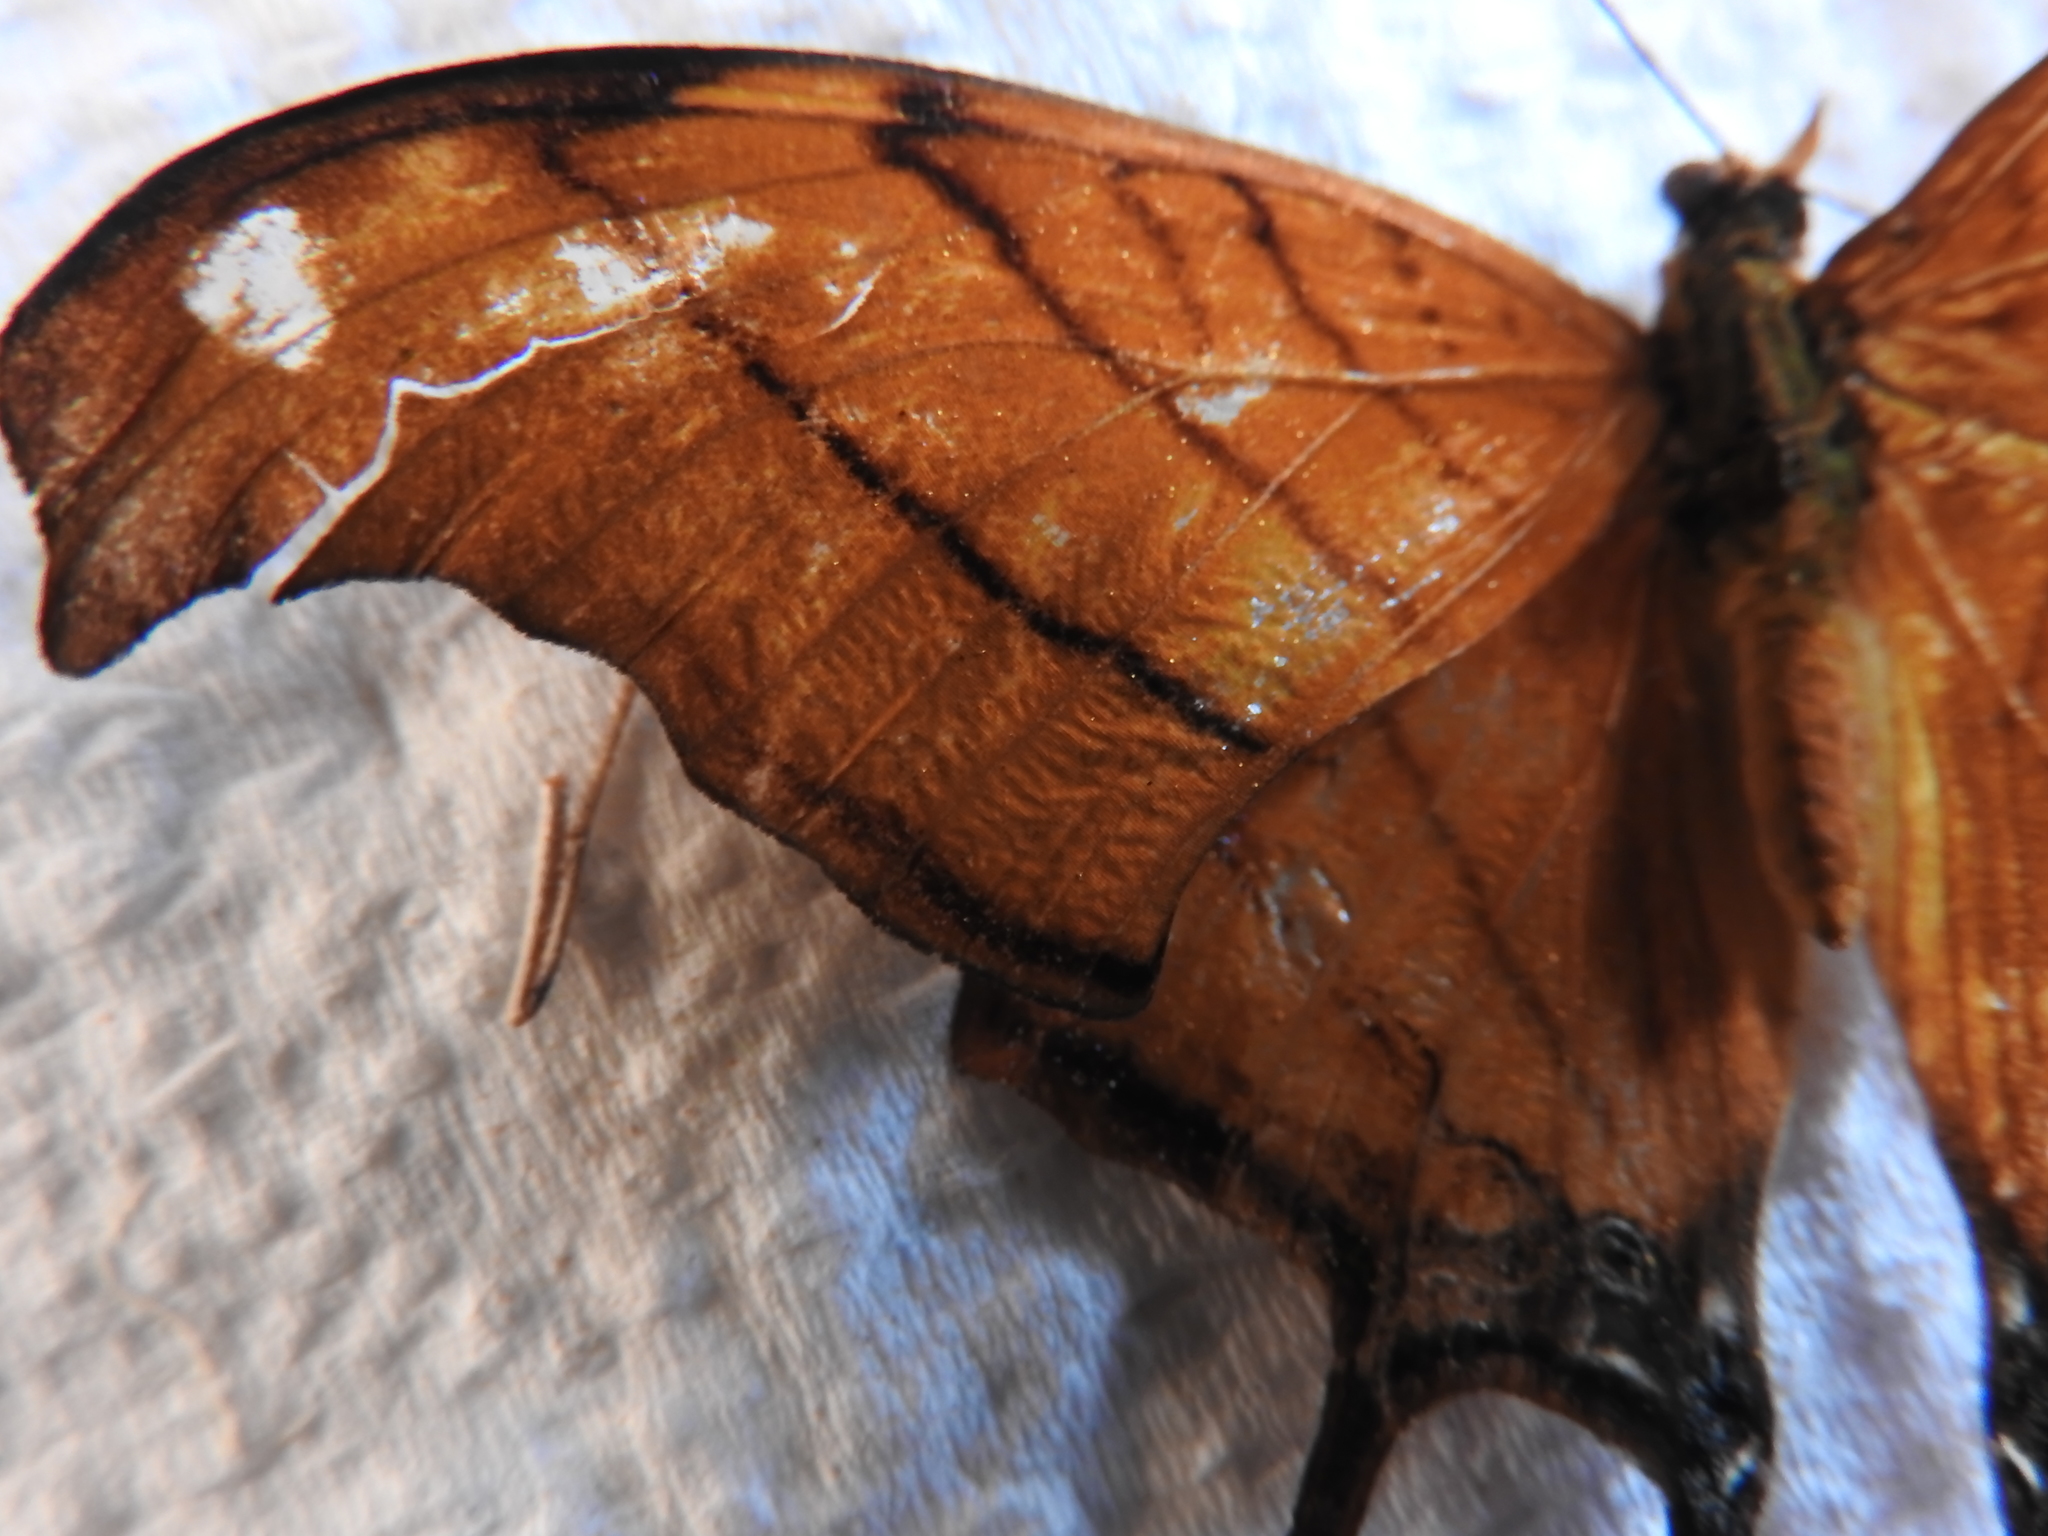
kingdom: Animalia
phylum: Arthropoda
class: Insecta
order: Lepidoptera
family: Nymphalidae
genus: Marpesia
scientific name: Marpesia petreus
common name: Red dagger wing
